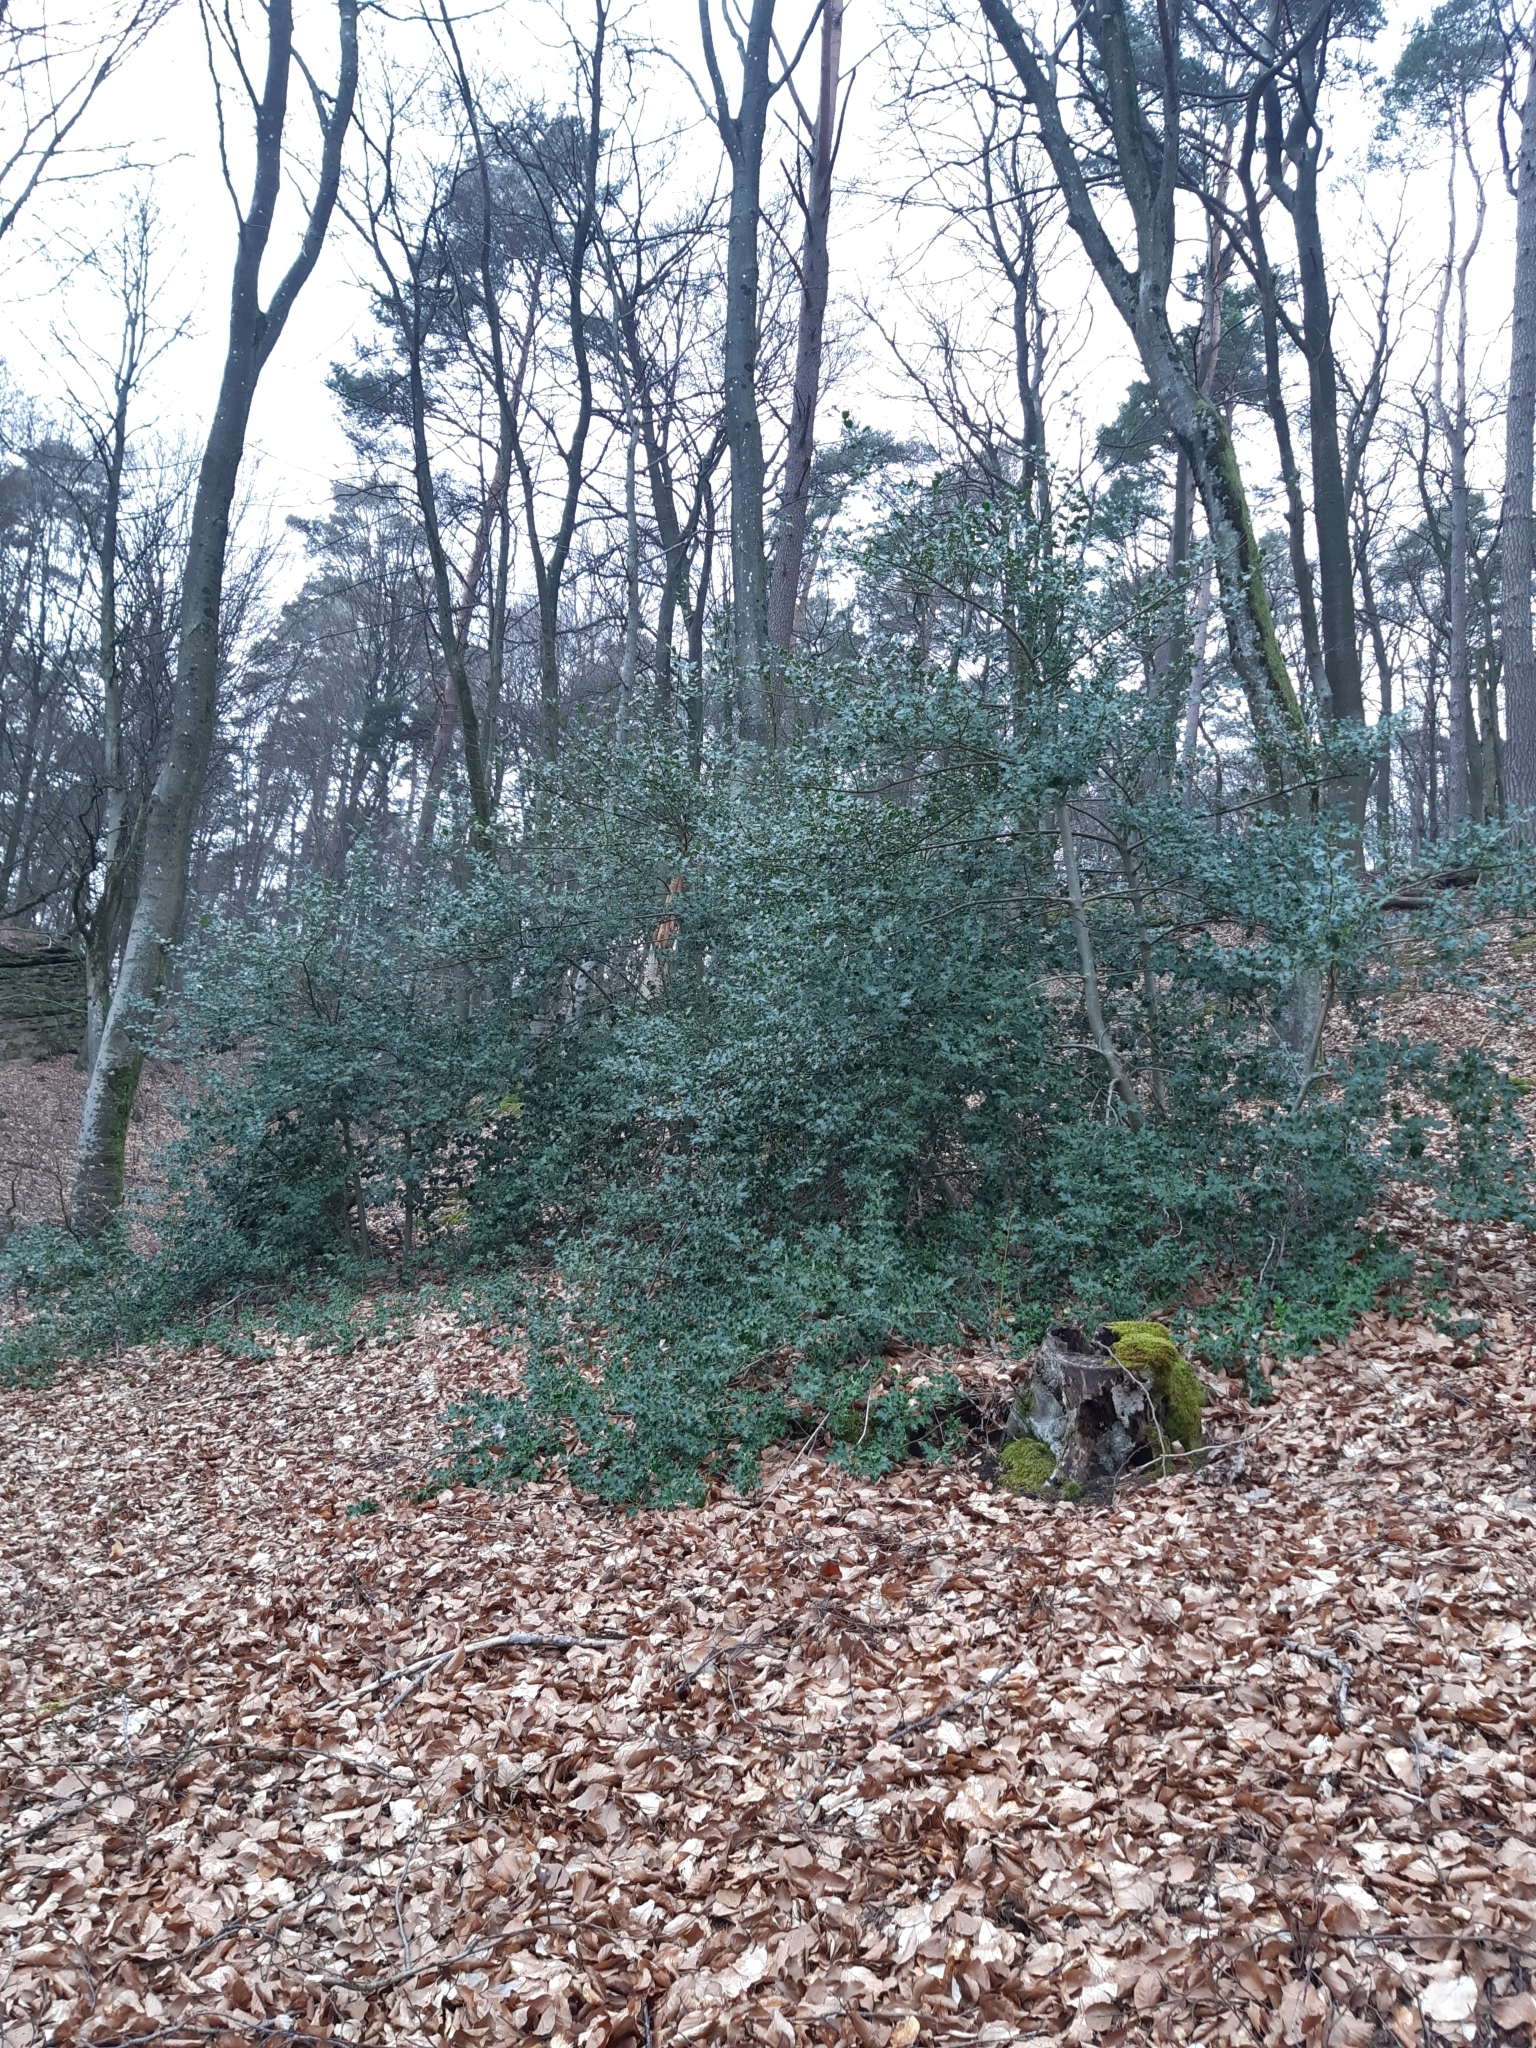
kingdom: Plantae
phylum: Tracheophyta
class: Magnoliopsida
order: Aquifoliales
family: Aquifoliaceae
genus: Ilex
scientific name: Ilex aquifolium
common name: English holly
